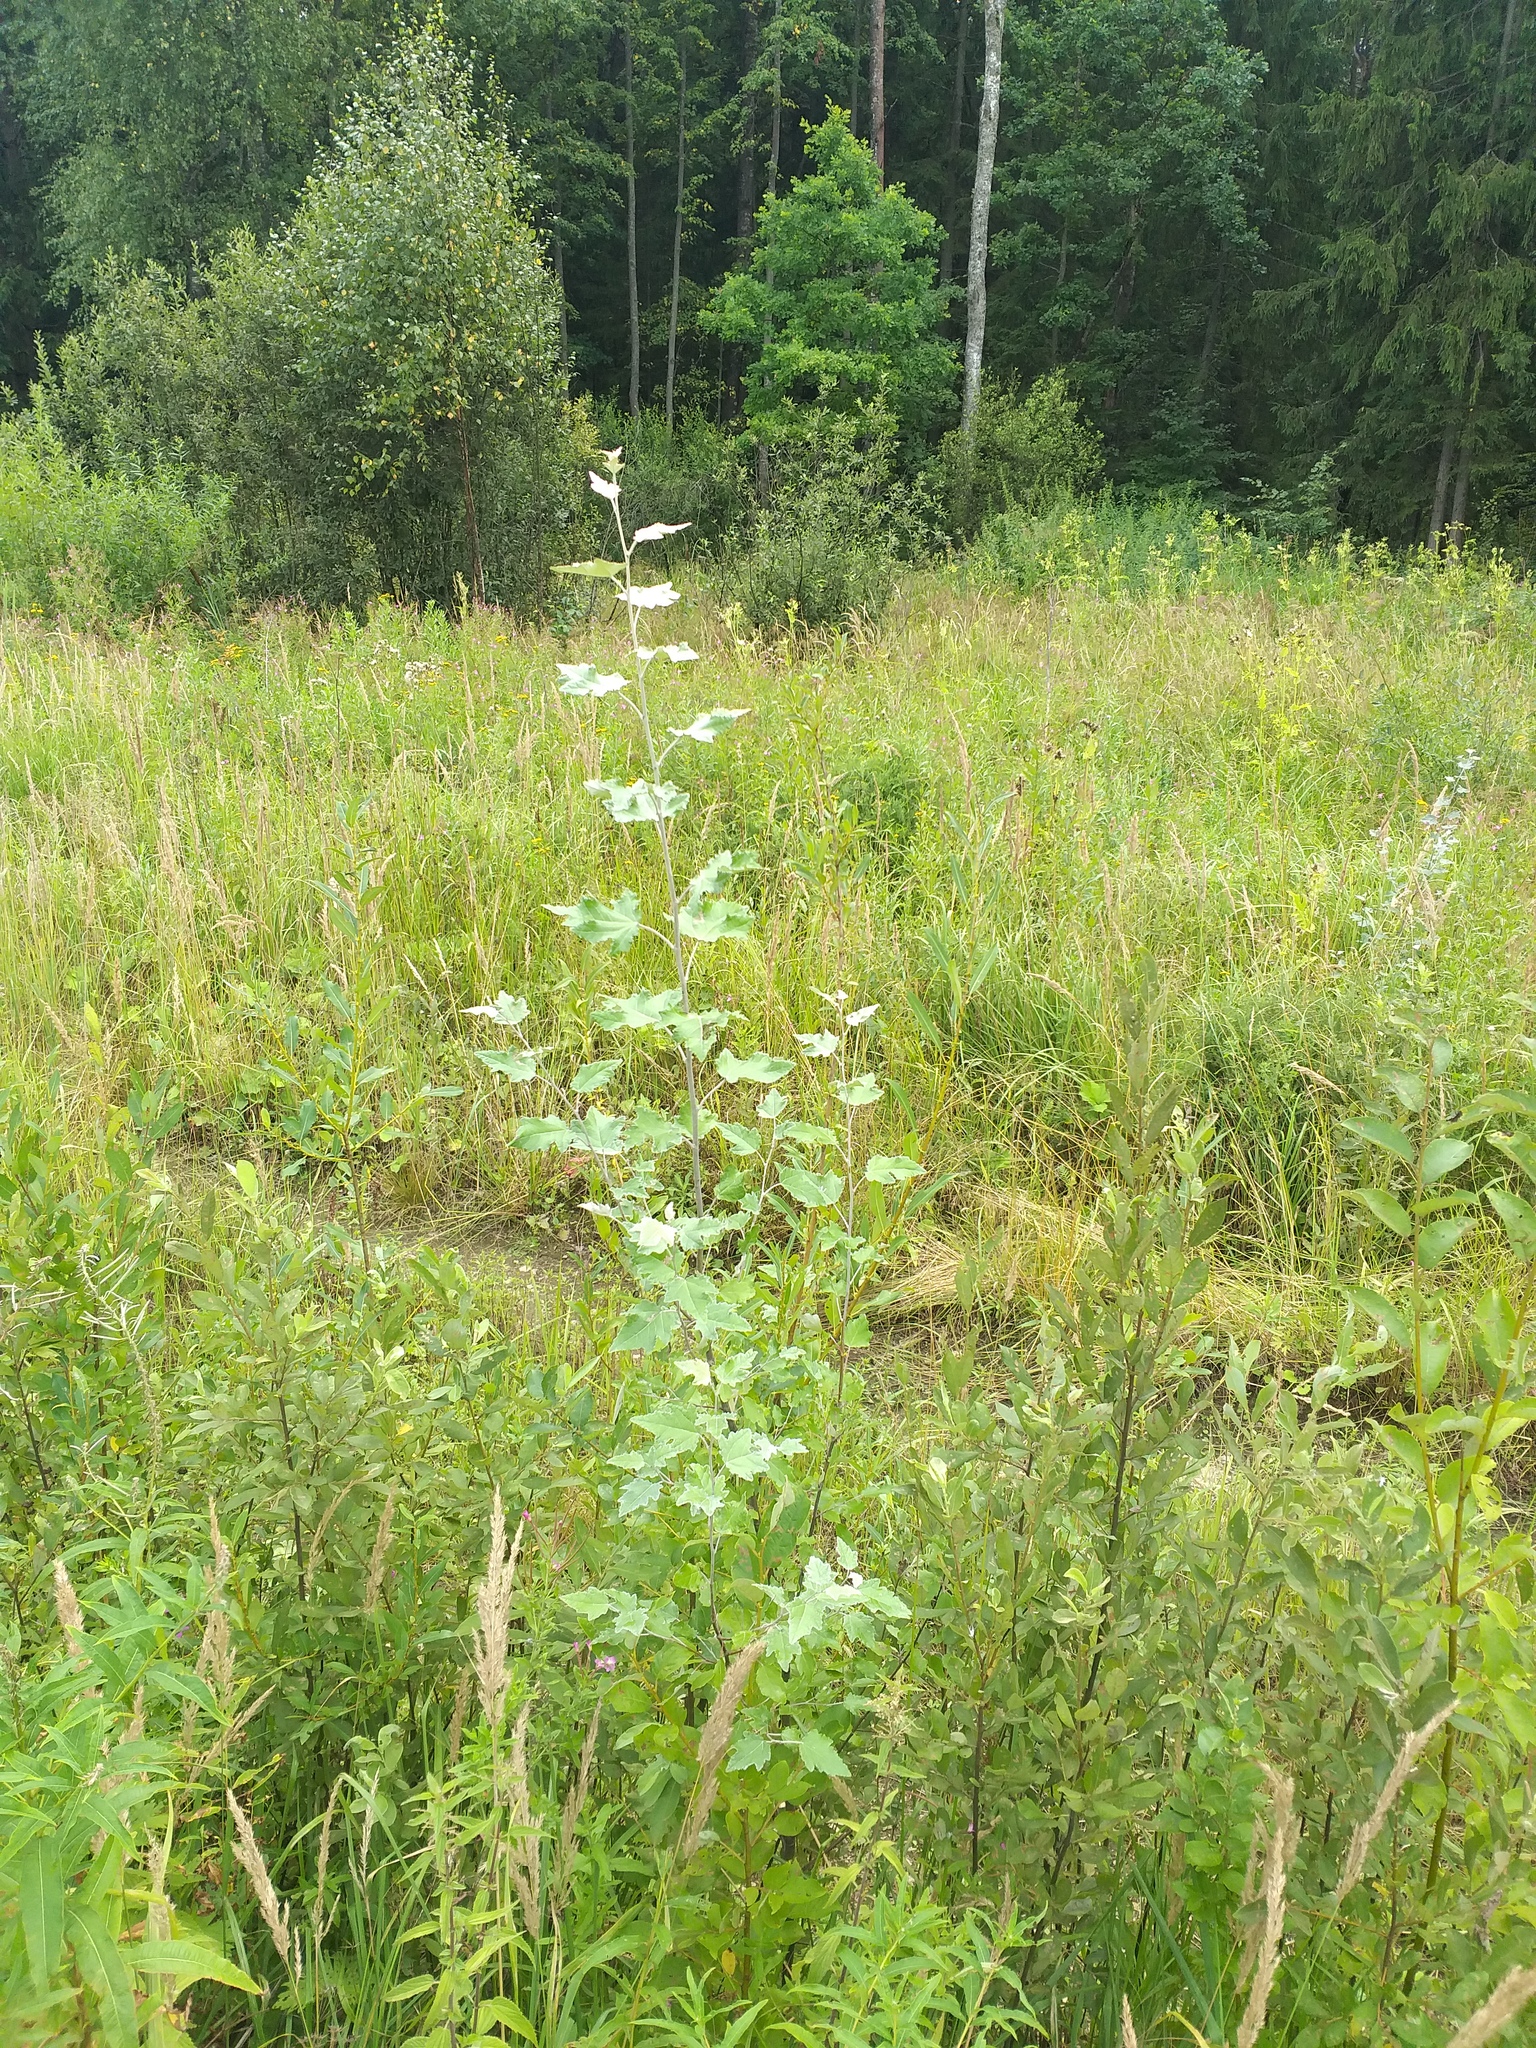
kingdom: Plantae
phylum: Tracheophyta
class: Magnoliopsida
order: Malpighiales
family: Salicaceae
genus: Populus
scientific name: Populus alba
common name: White poplar
